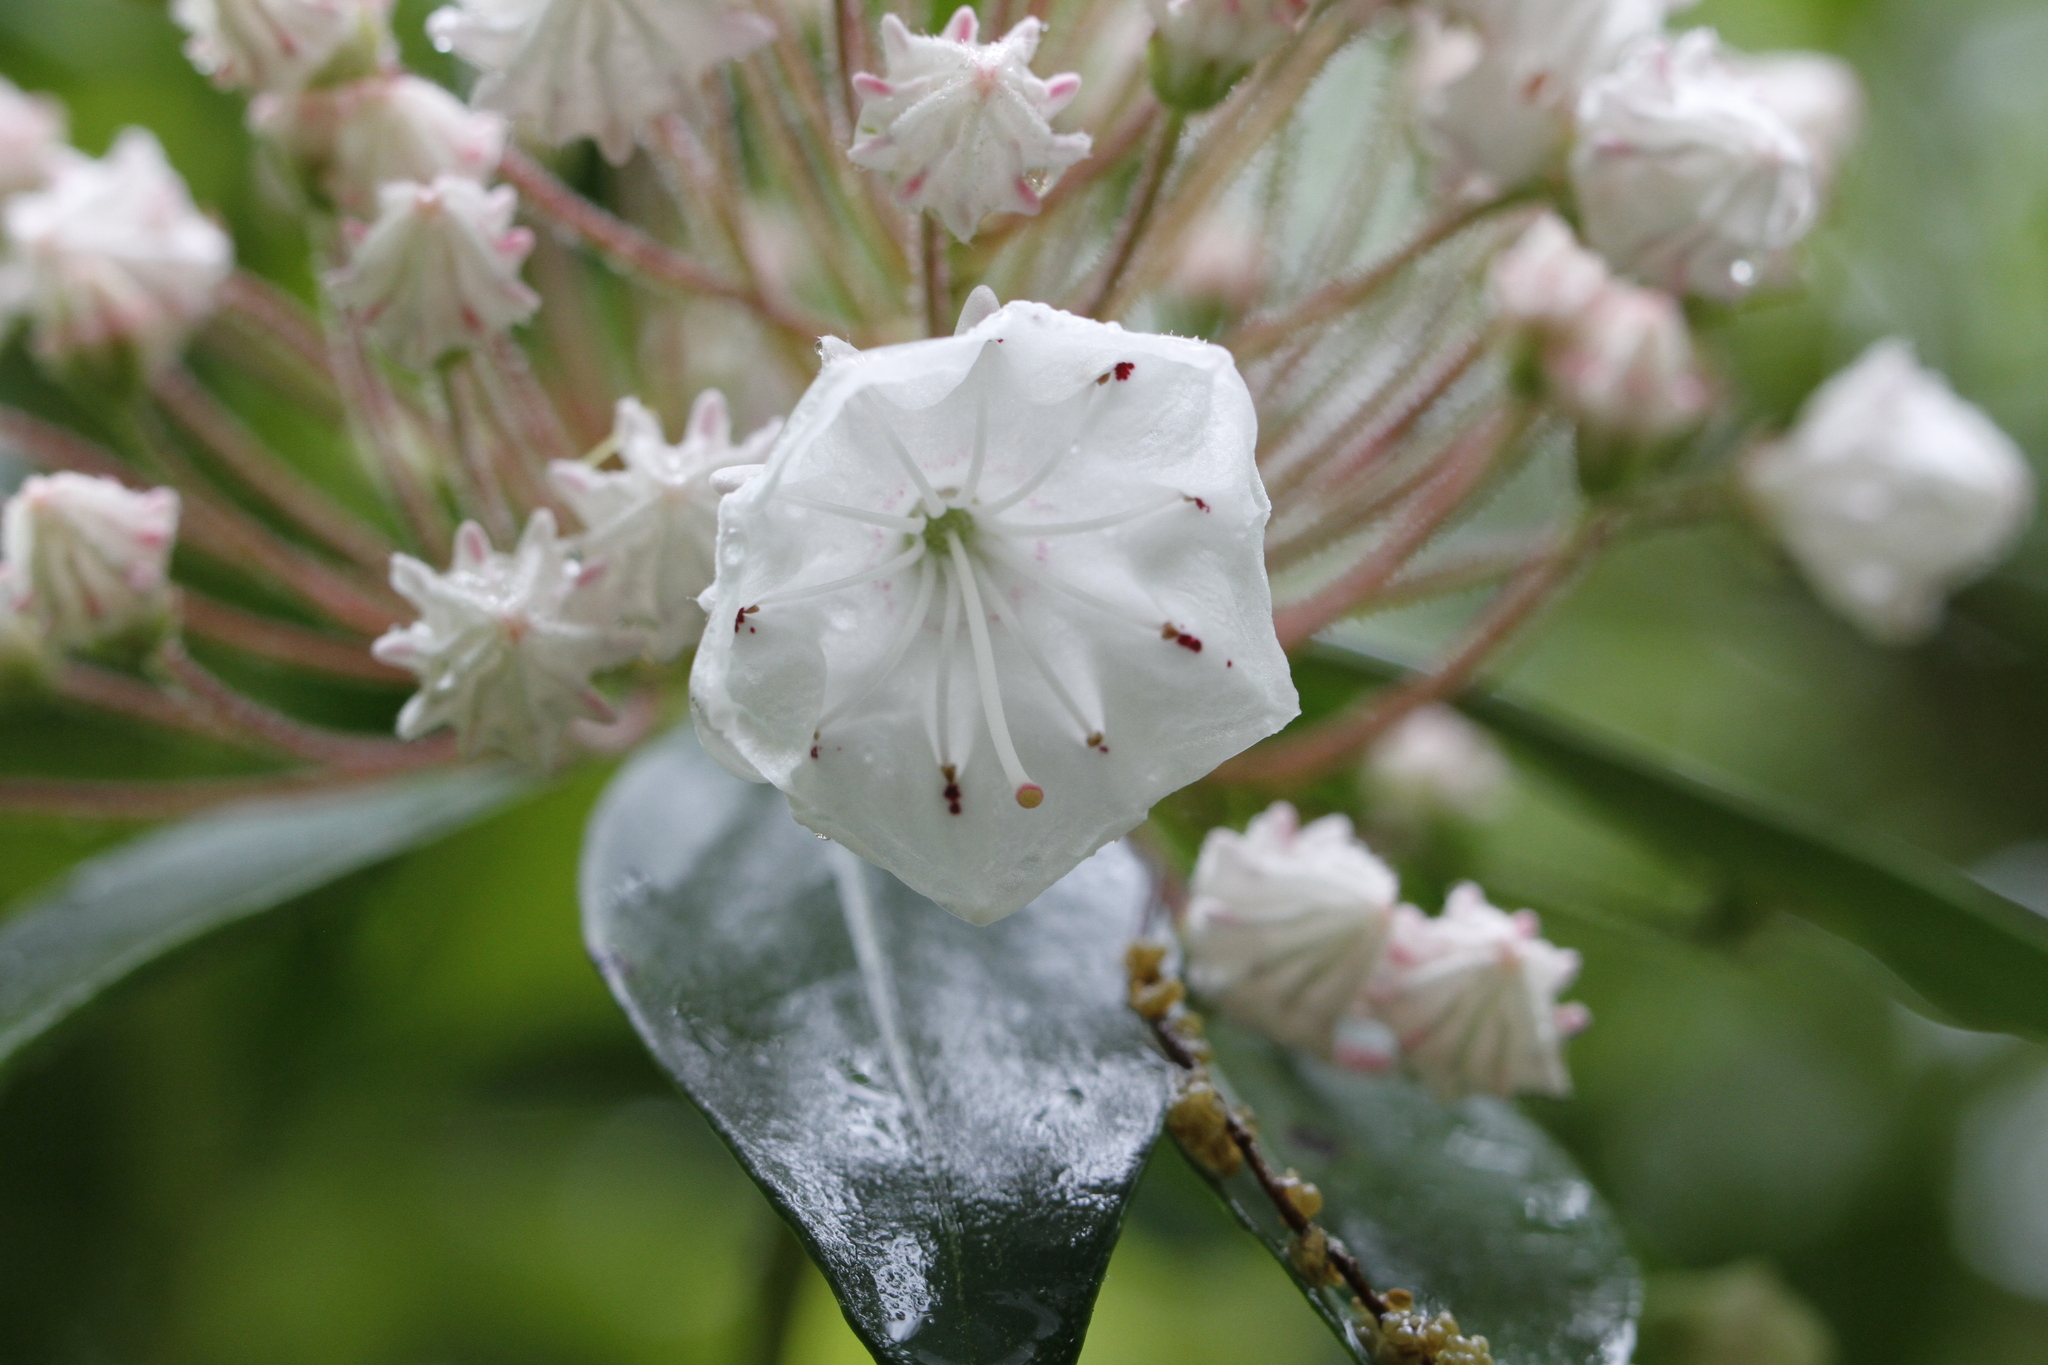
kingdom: Plantae
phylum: Tracheophyta
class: Magnoliopsida
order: Ericales
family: Ericaceae
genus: Kalmia
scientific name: Kalmia latifolia
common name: Mountain-laurel
